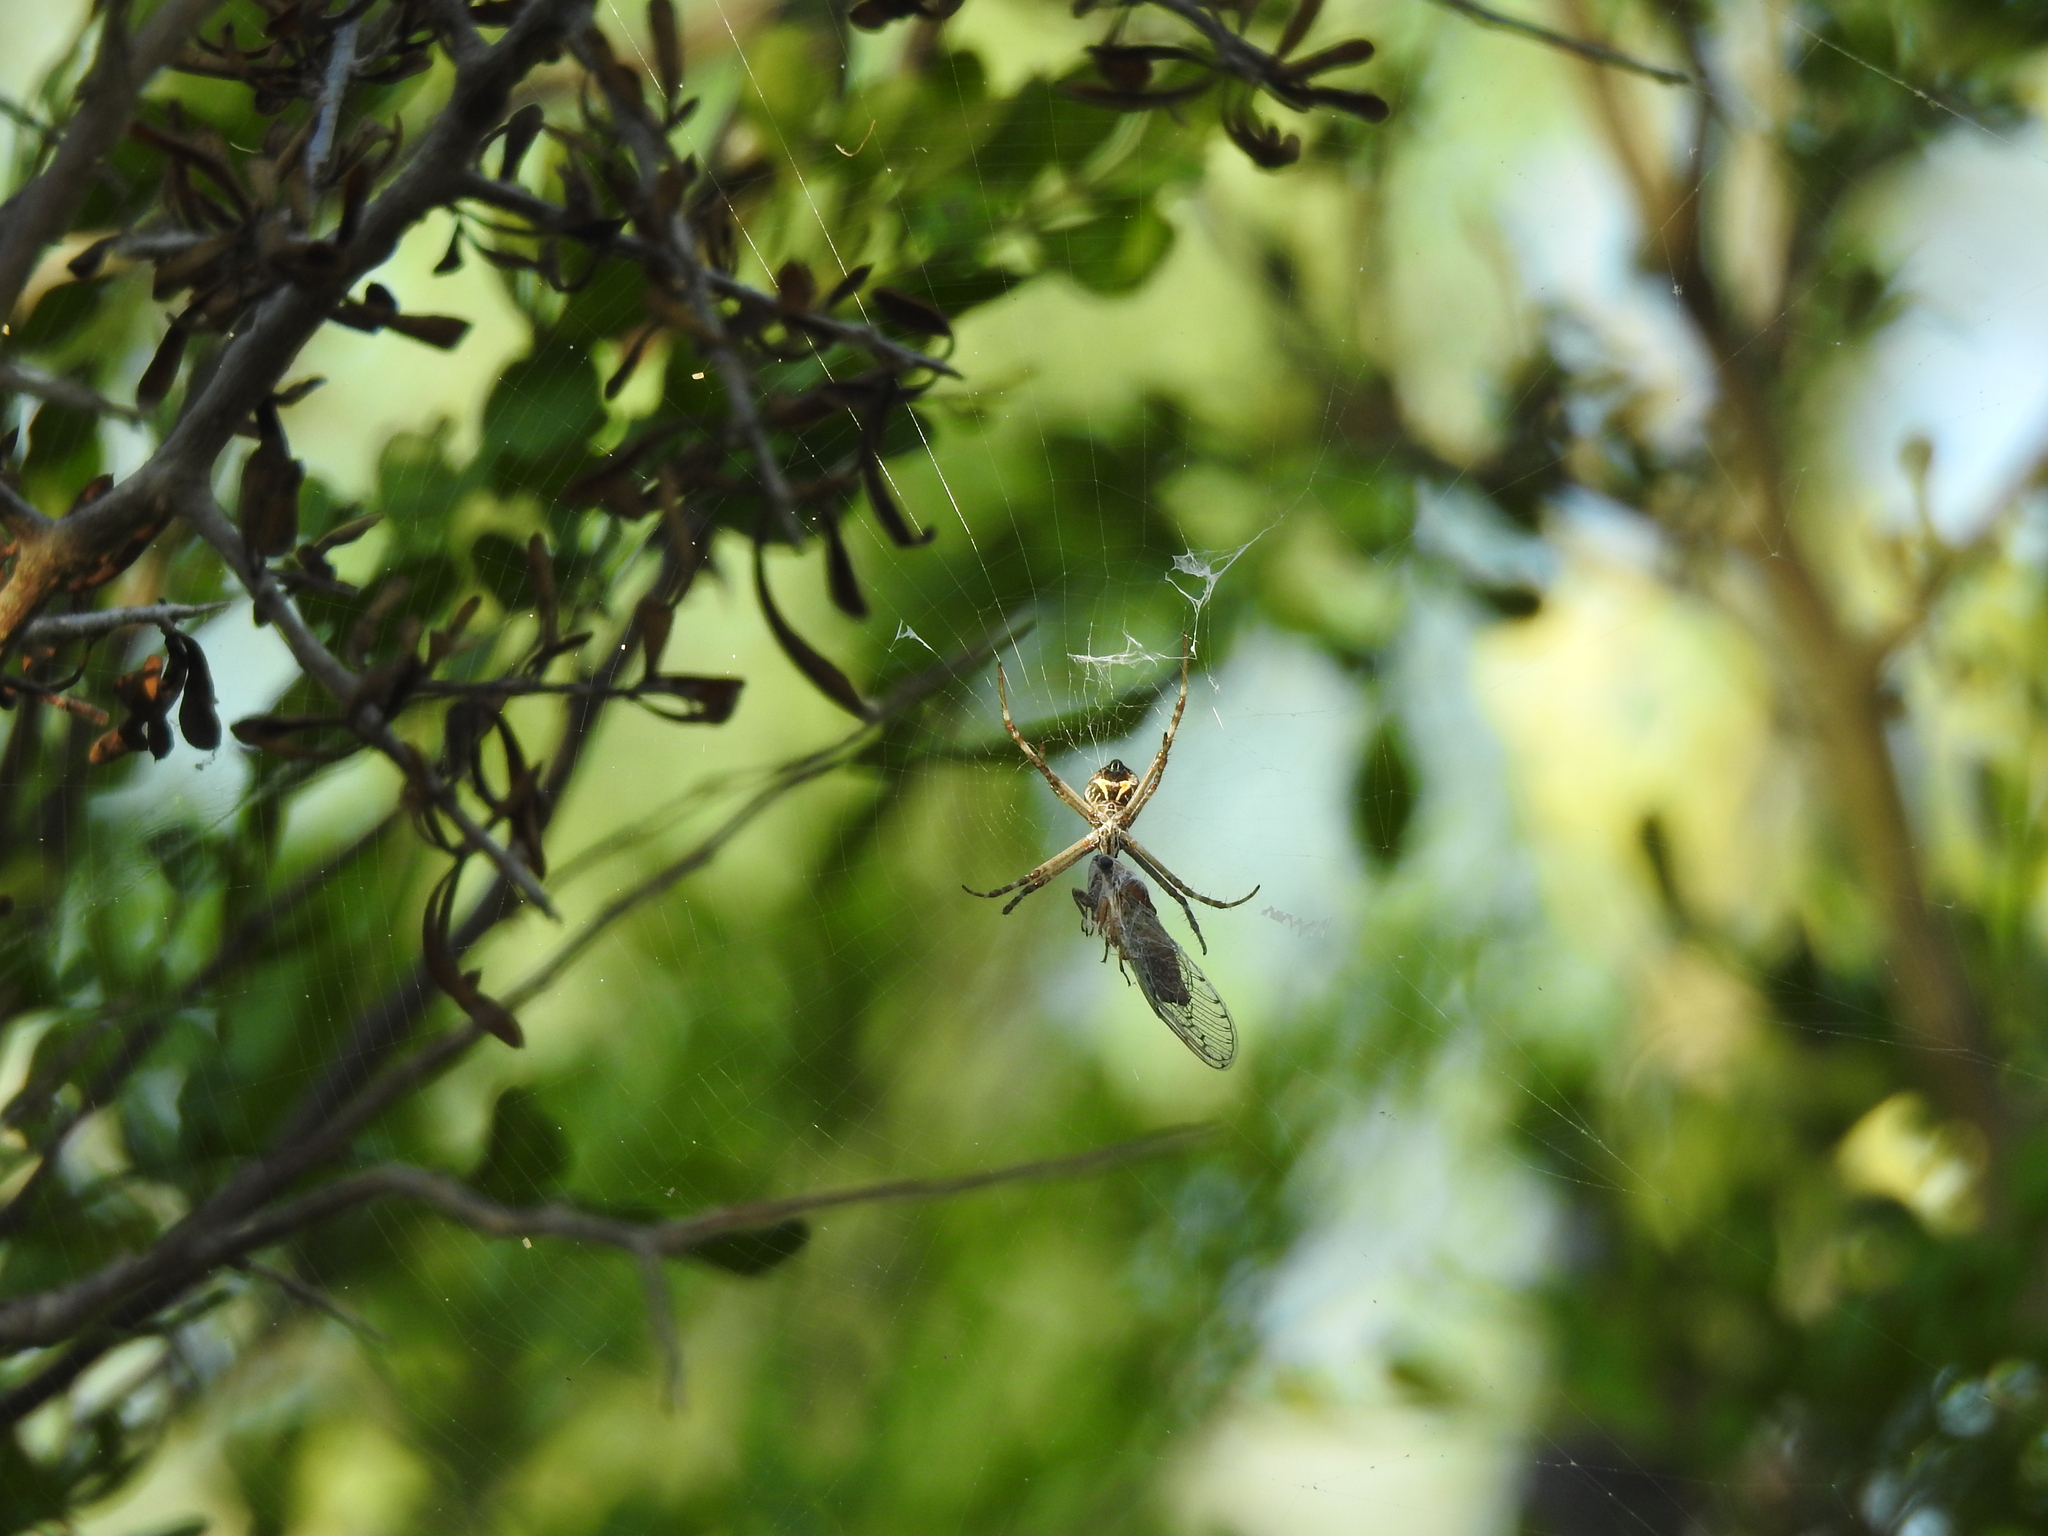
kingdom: Animalia
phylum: Arthropoda
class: Arachnida
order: Araneae
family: Araneidae
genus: Argiope
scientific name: Argiope argentata
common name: Orb weavers
